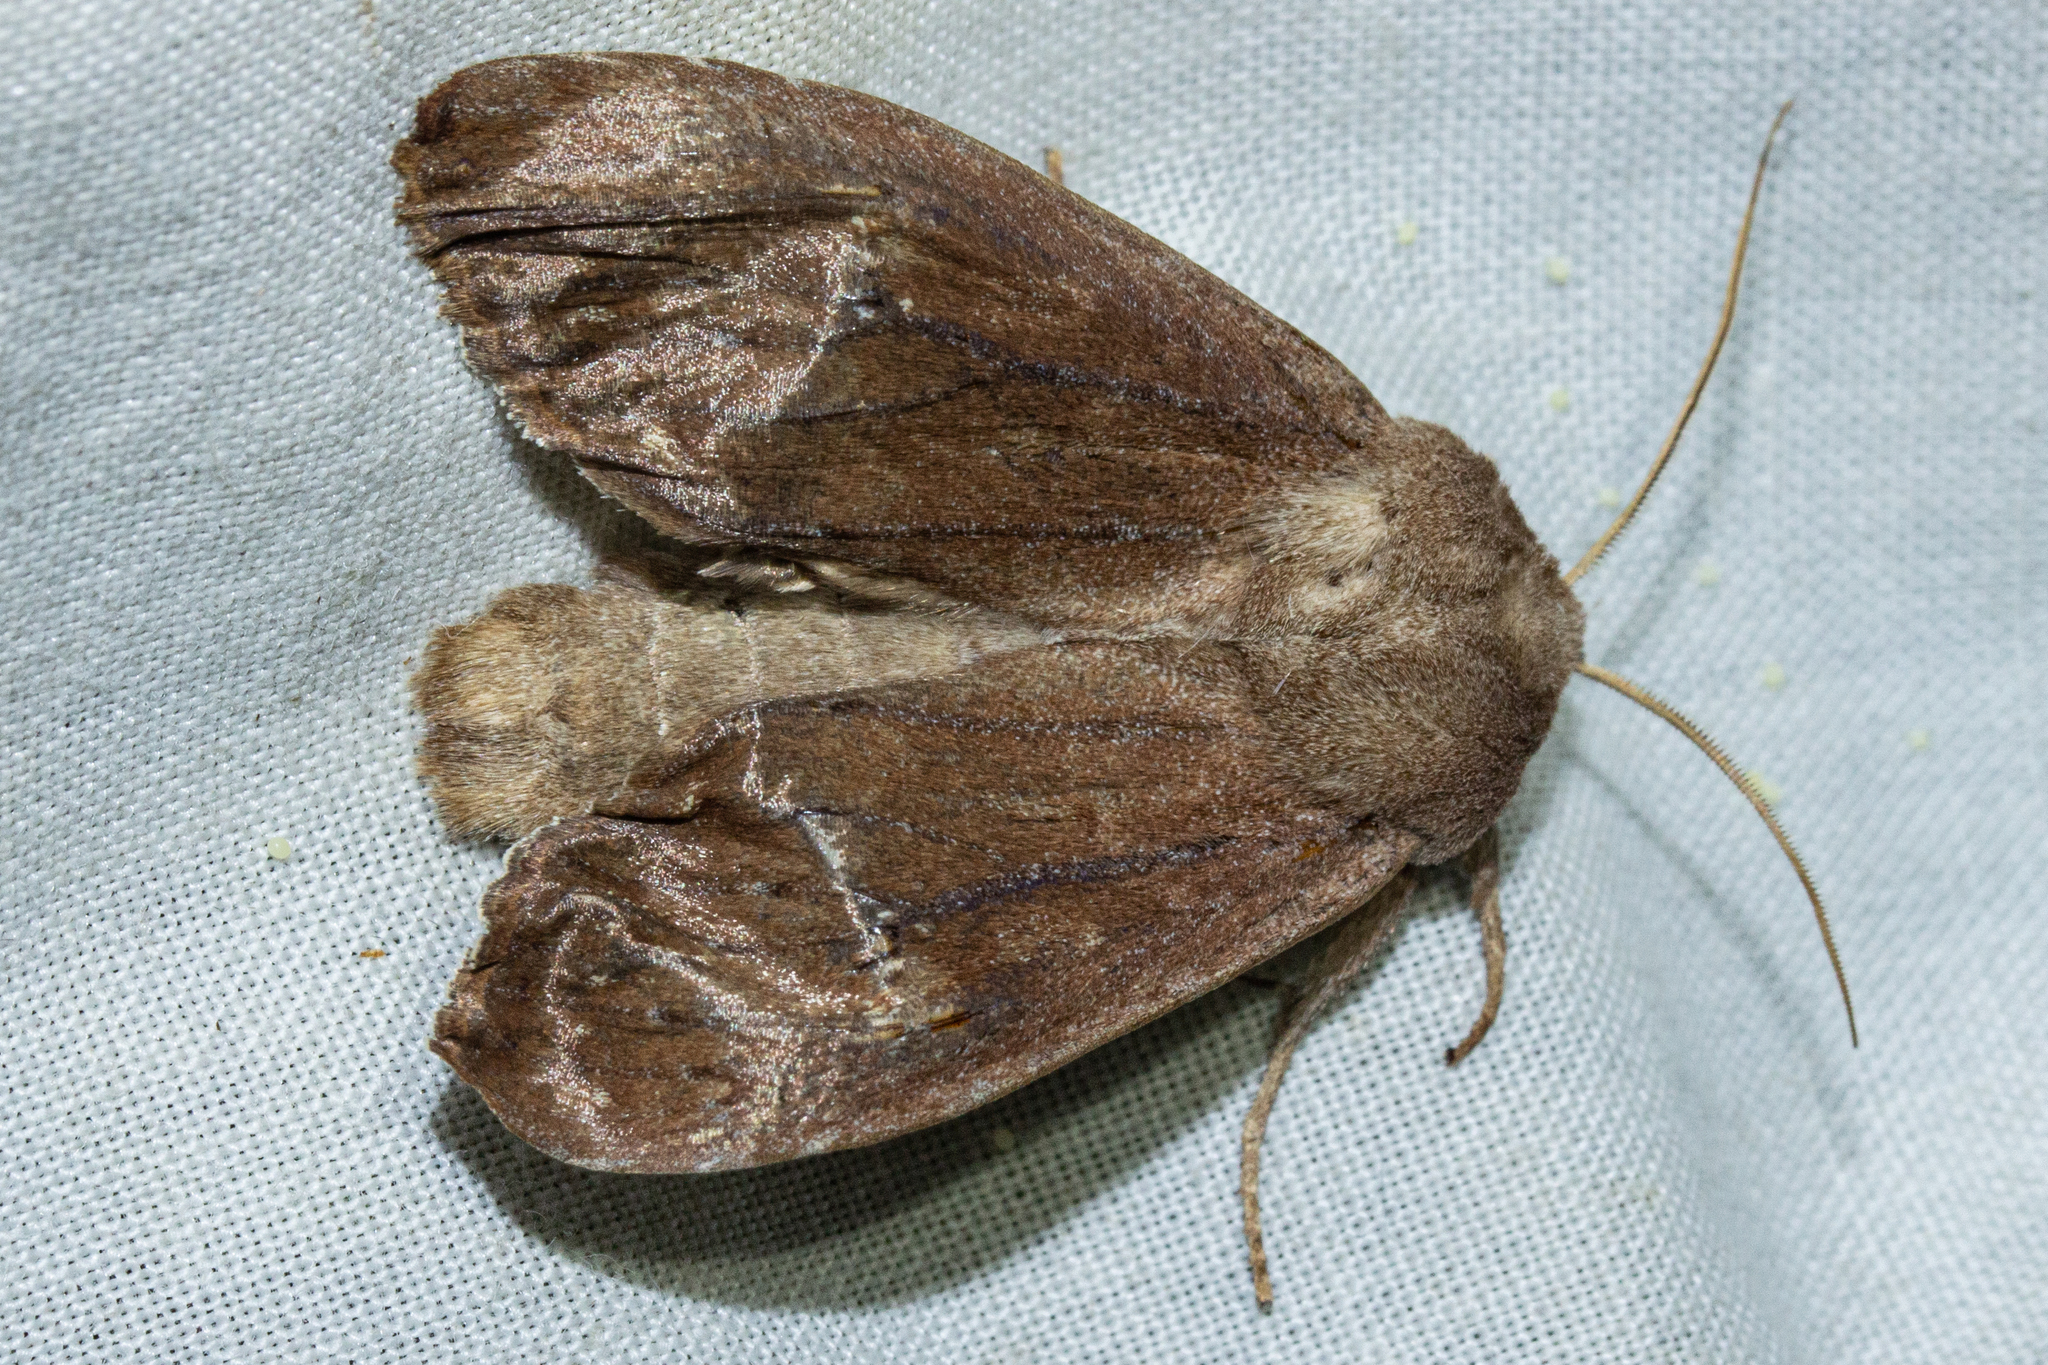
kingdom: Animalia
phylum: Arthropoda
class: Insecta
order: Lepidoptera
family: Noctuidae
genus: Ichneutica
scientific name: Ichneutica nullifera
